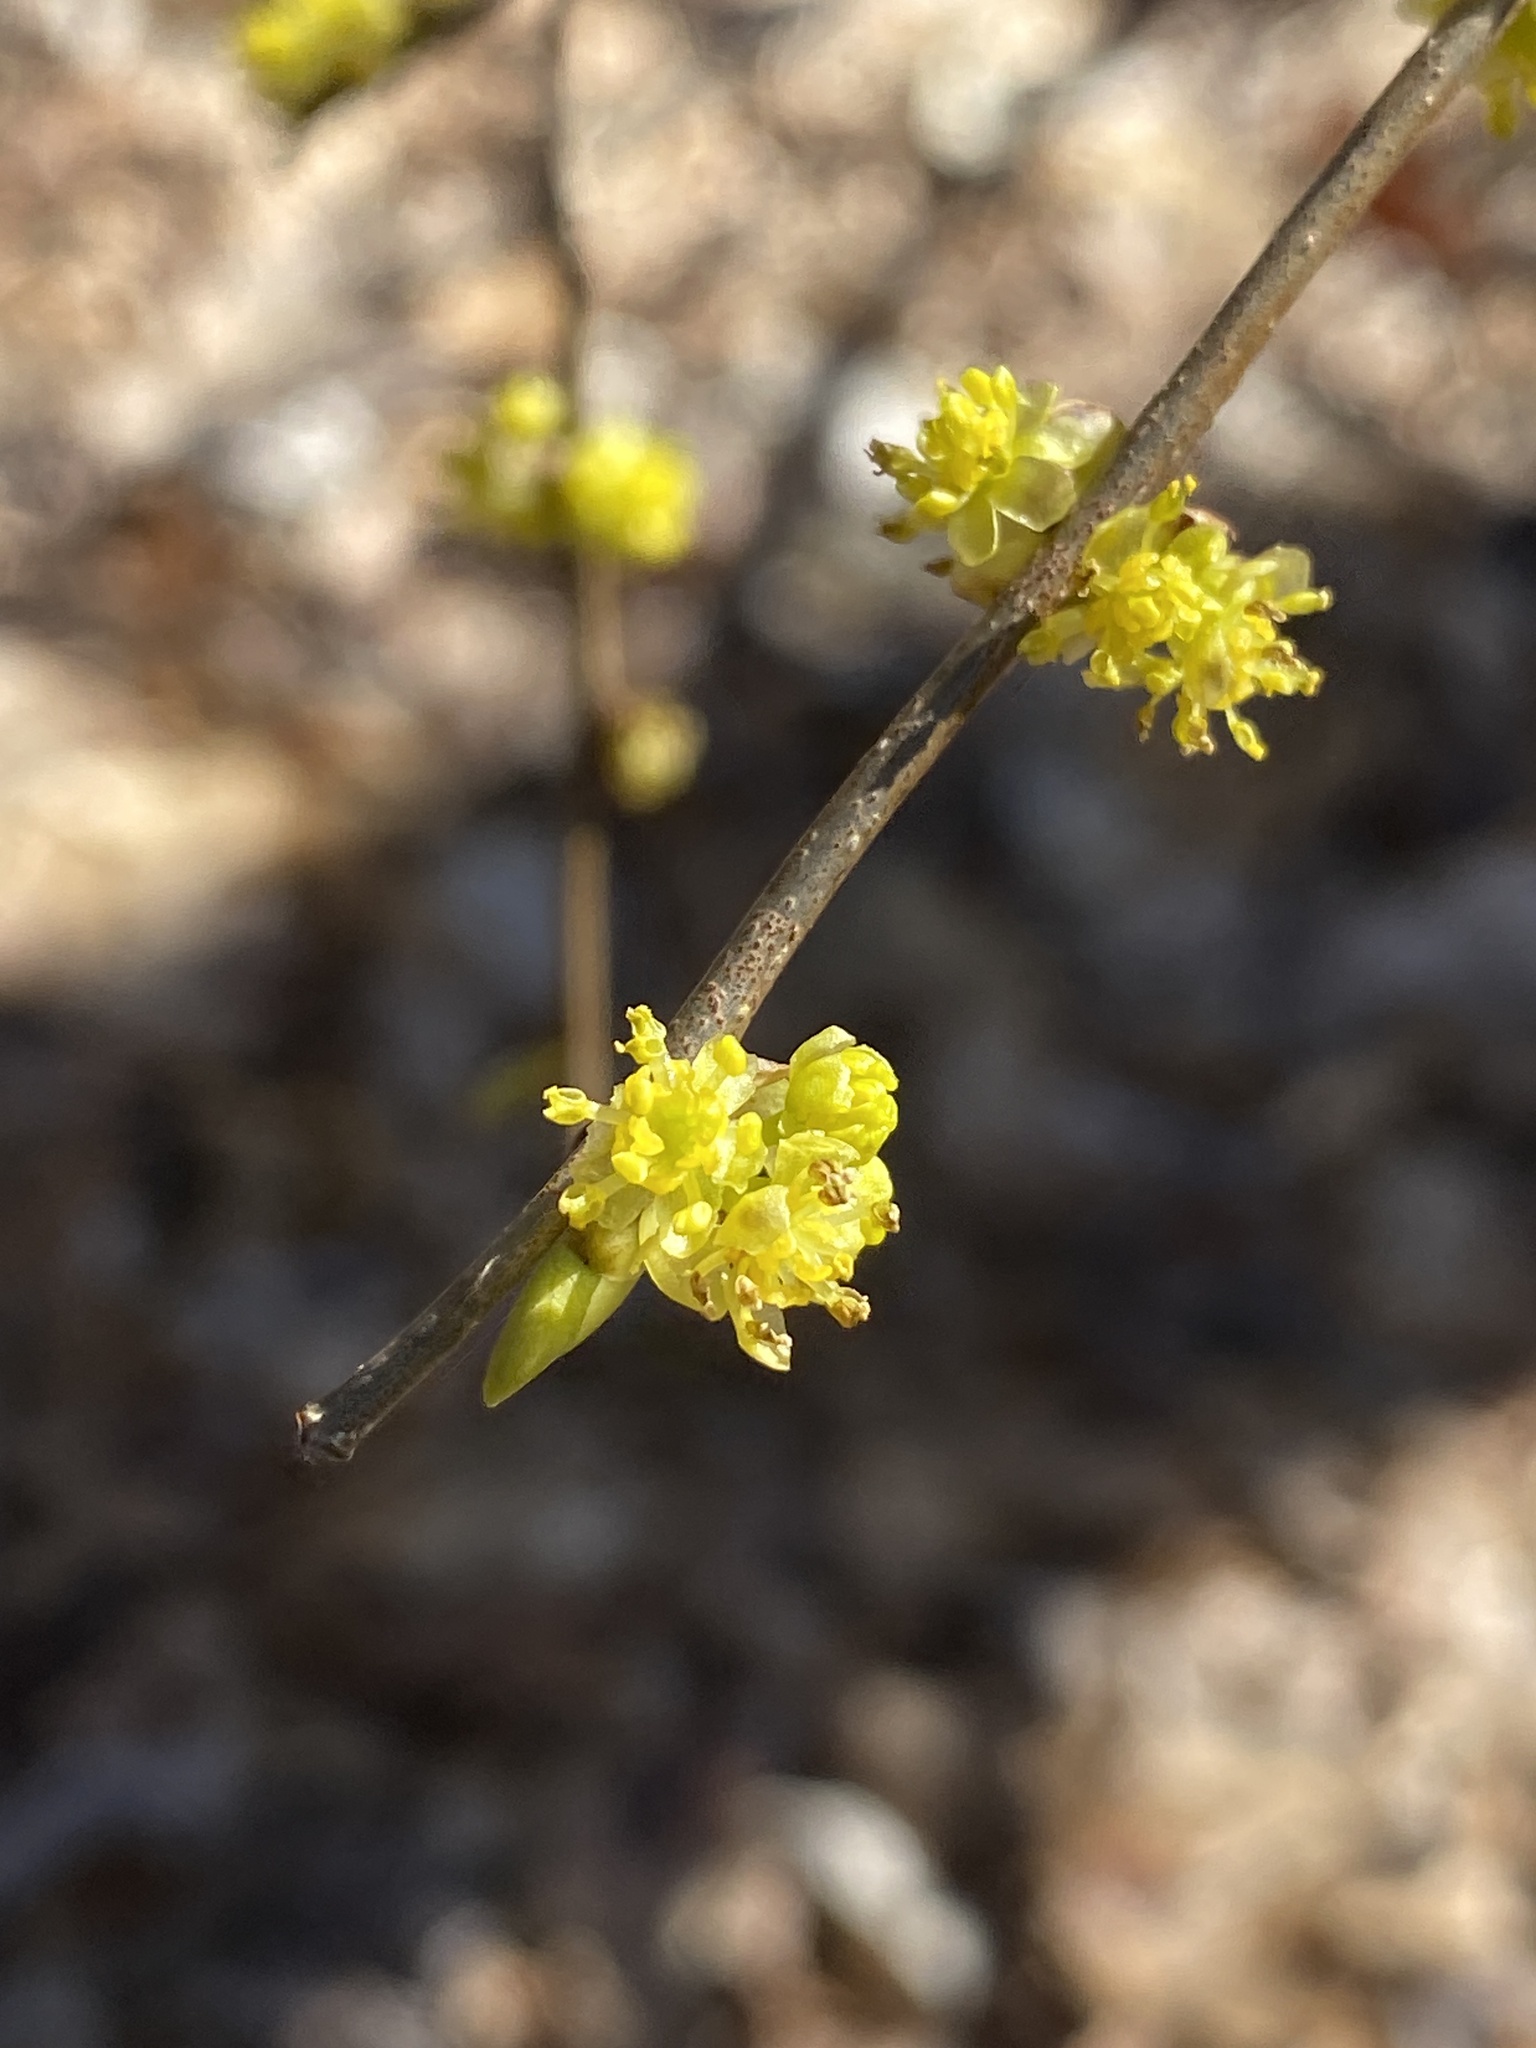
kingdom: Plantae
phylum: Tracheophyta
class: Magnoliopsida
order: Laurales
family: Lauraceae
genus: Lindera
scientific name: Lindera benzoin
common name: Spicebush
